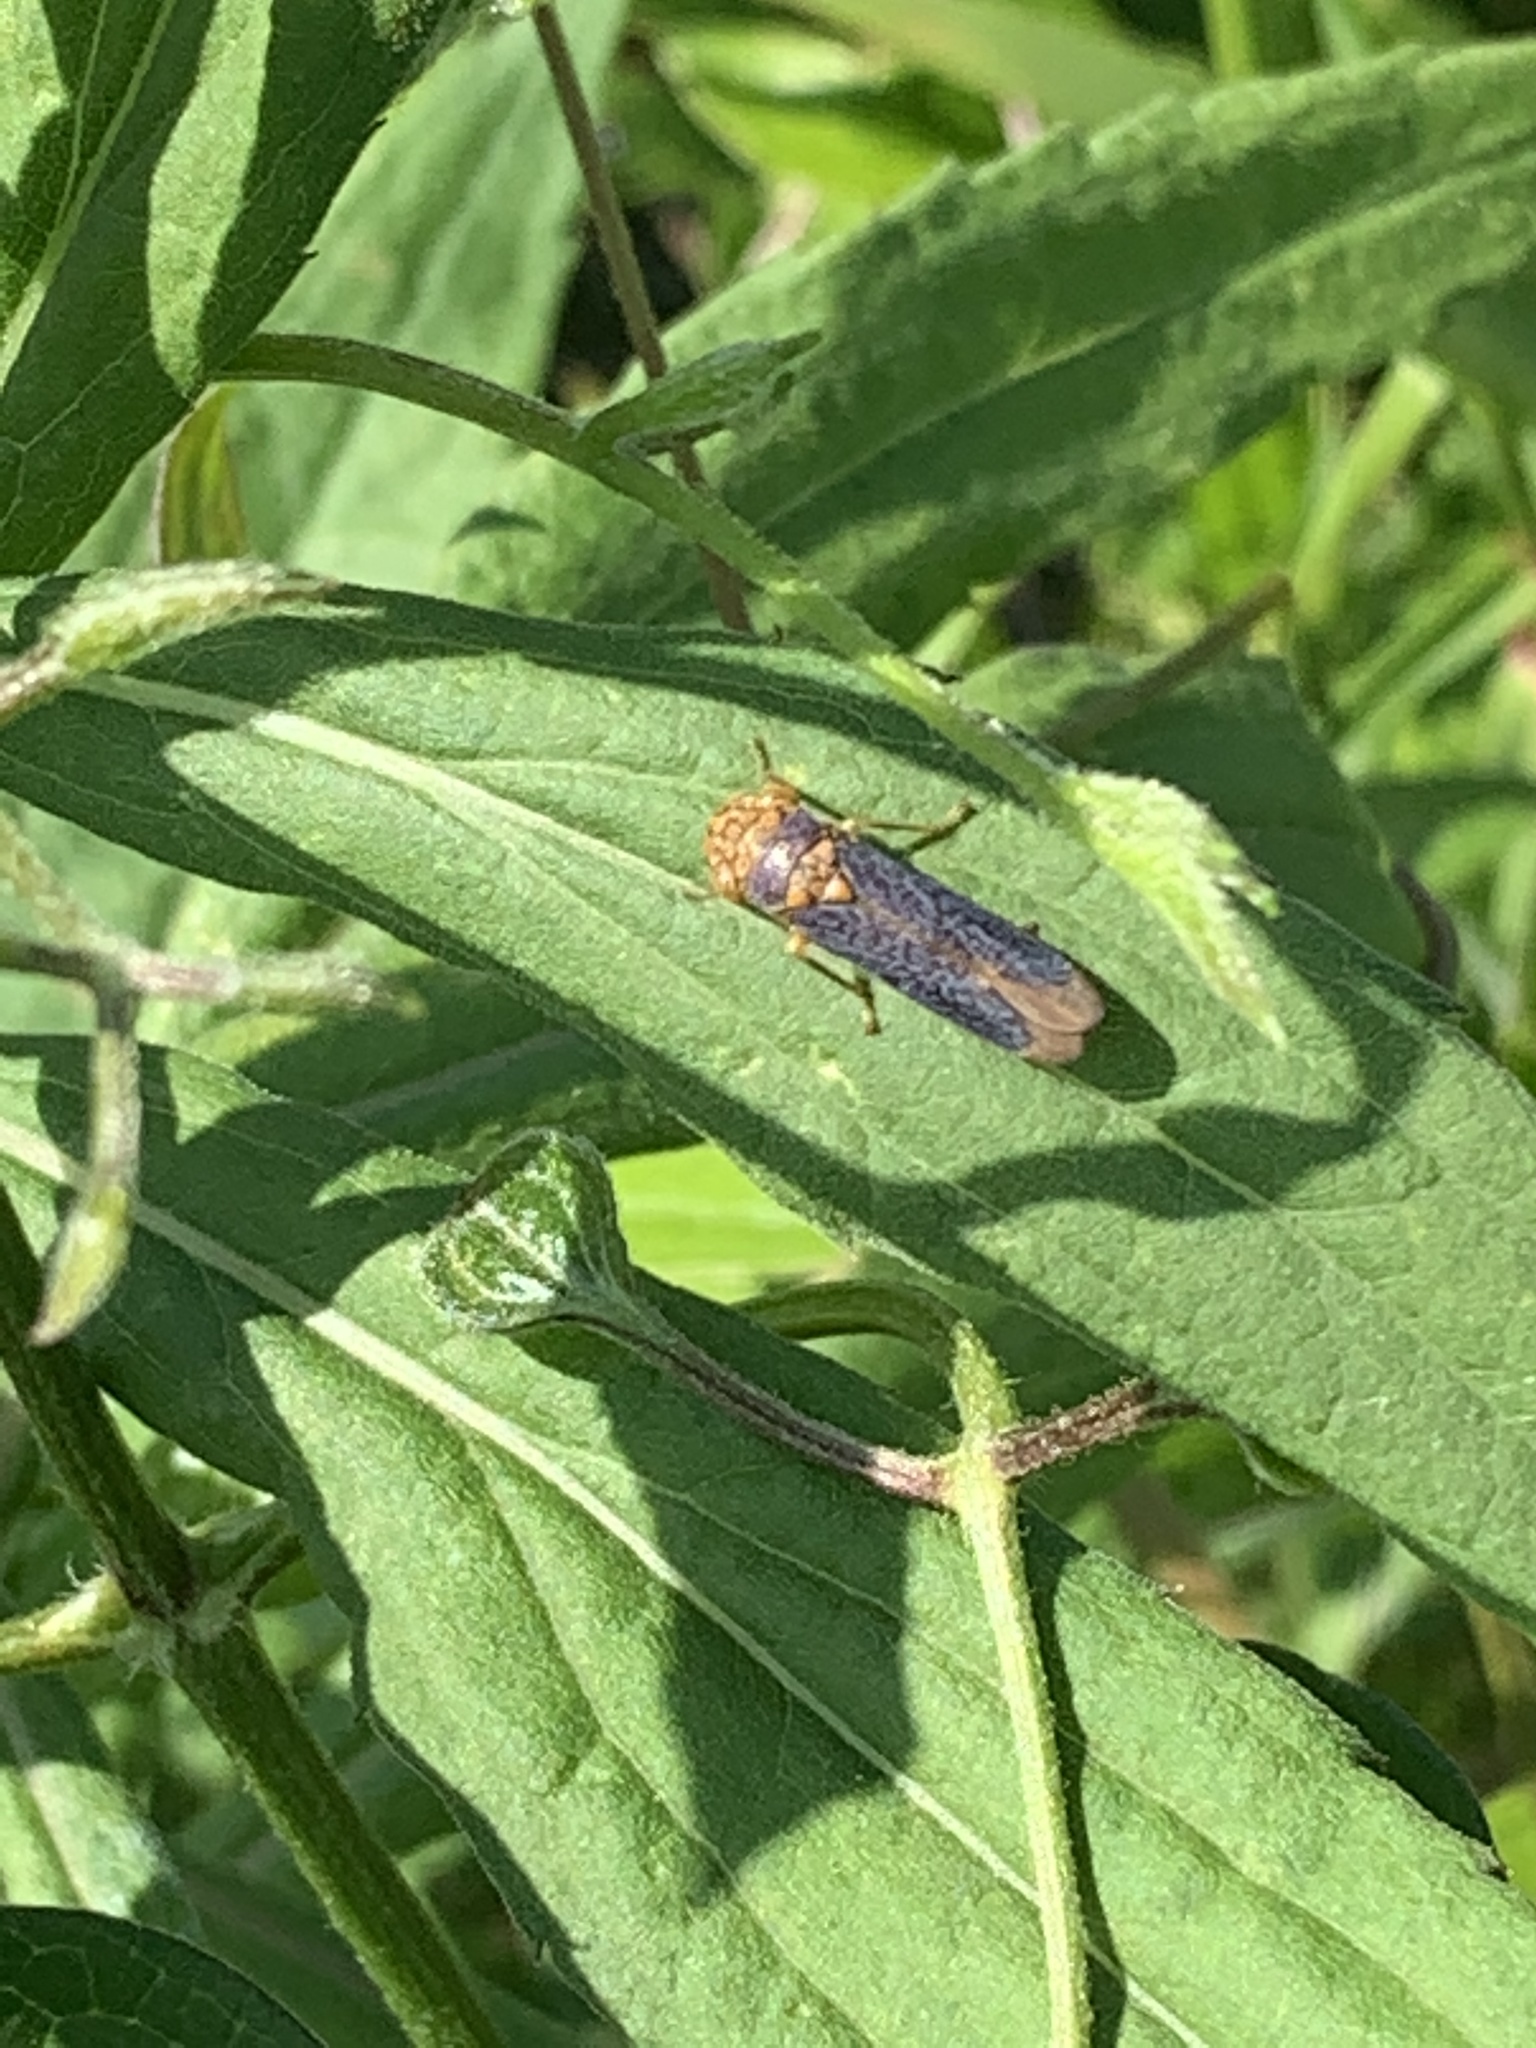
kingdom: Animalia
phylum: Arthropoda
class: Insecta
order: Hemiptera
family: Cicadellidae
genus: Oncometopia
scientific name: Oncometopia orbona
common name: Broad-headed sharpshooter
